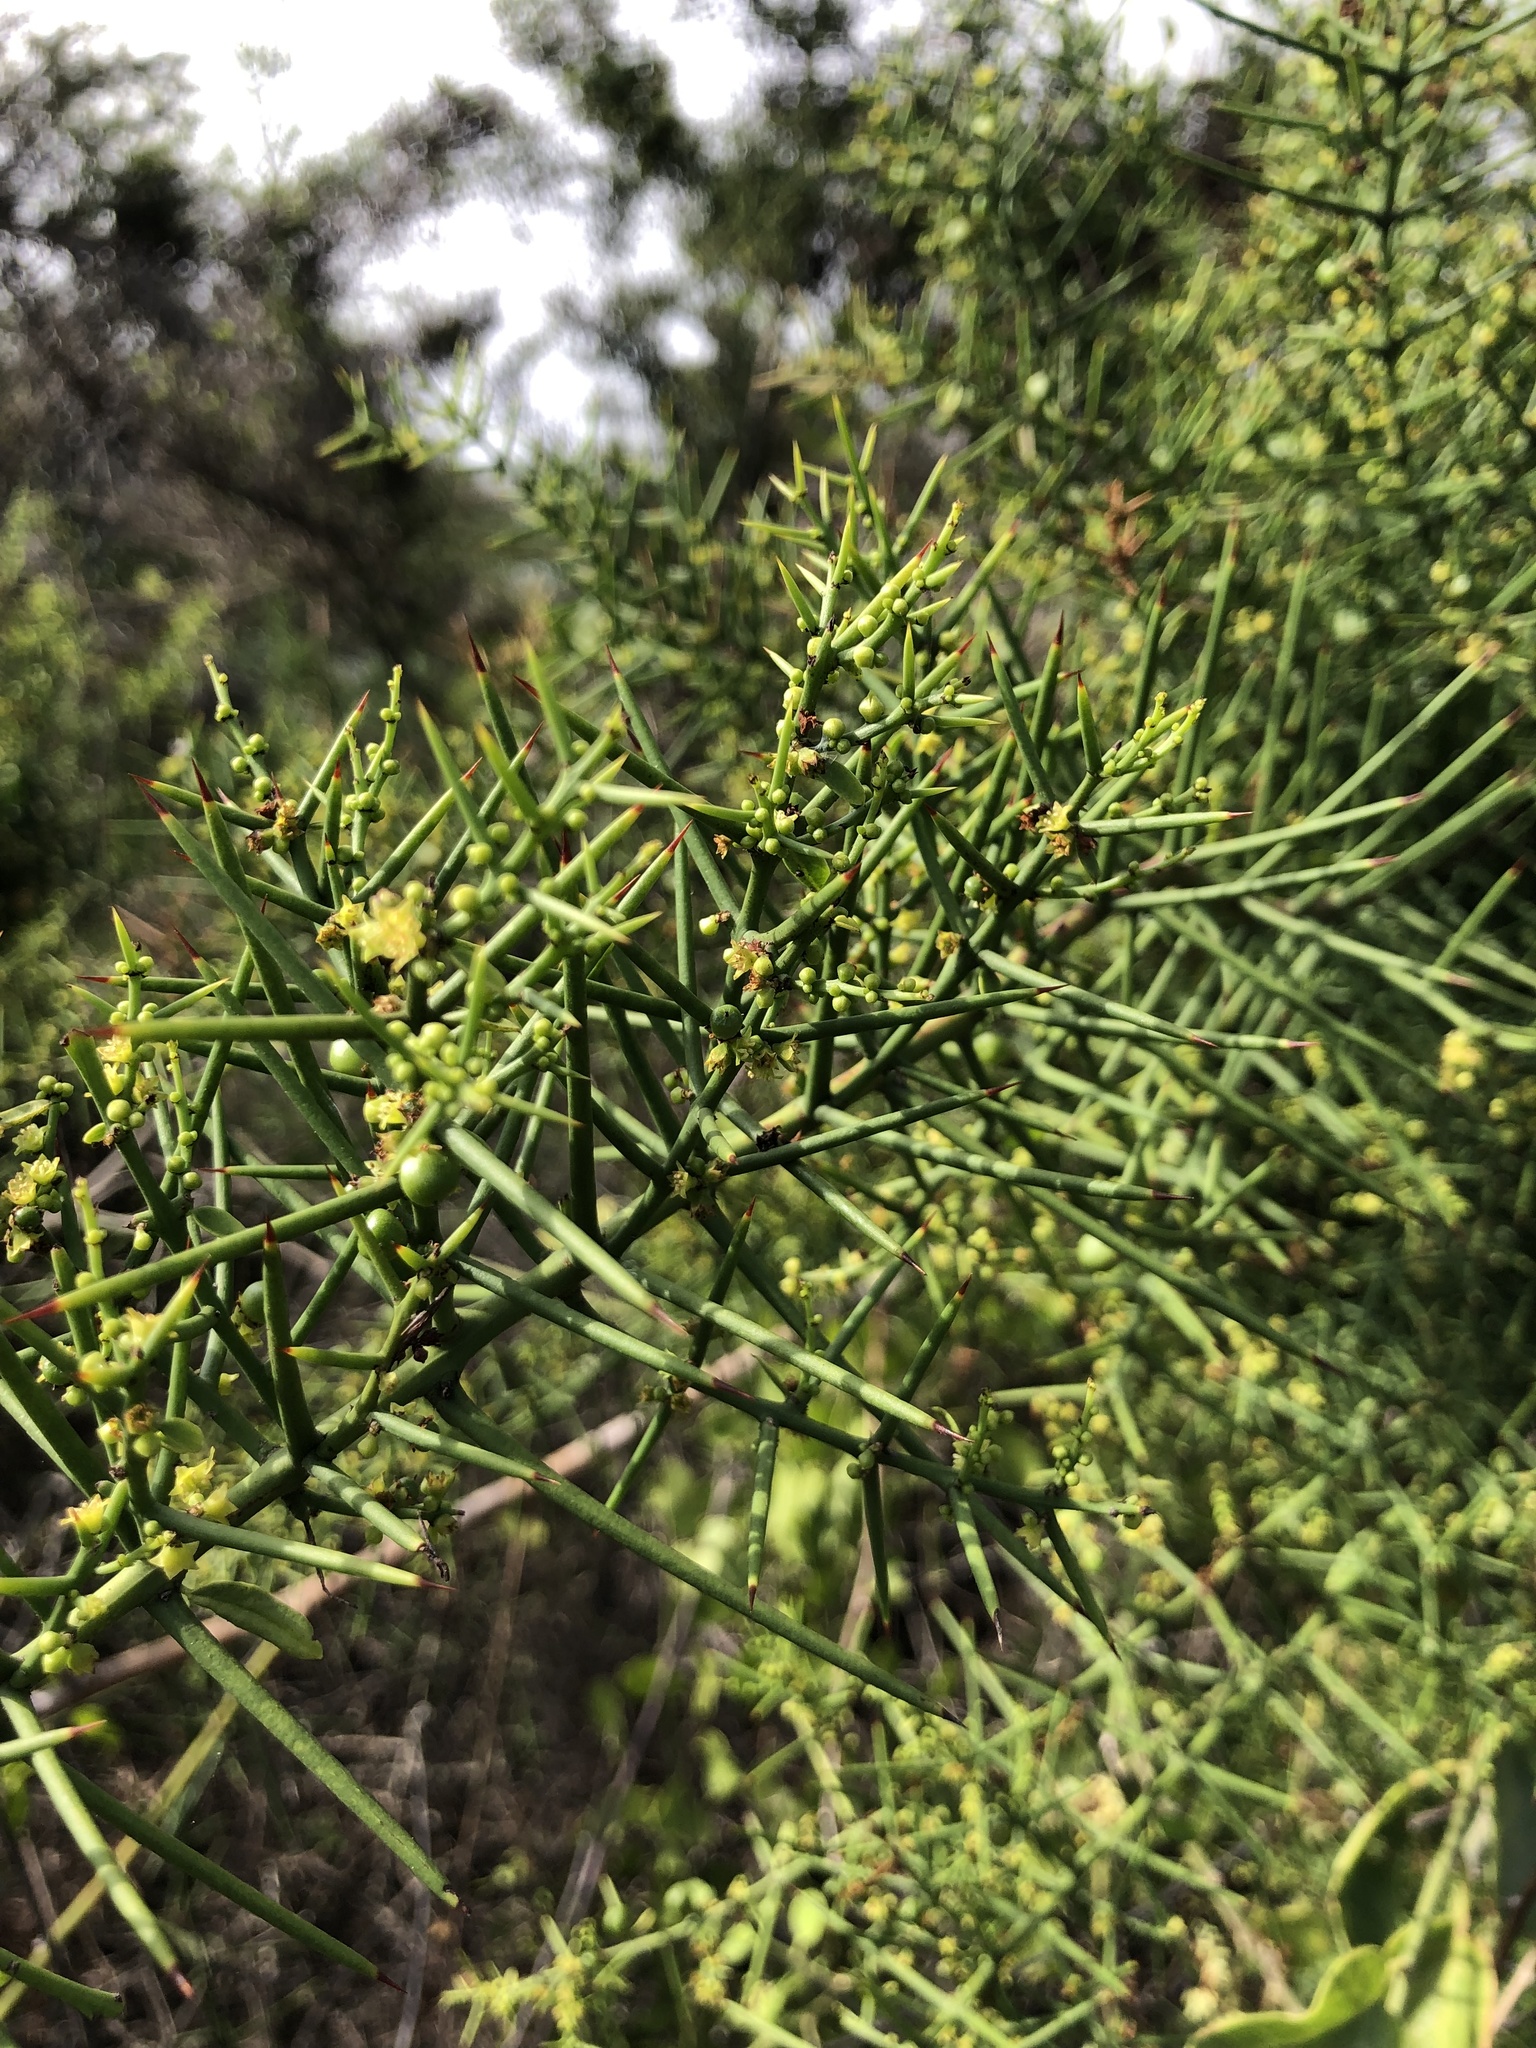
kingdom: Plantae
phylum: Tracheophyta
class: Magnoliopsida
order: Rosales
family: Rhamnaceae
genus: Scutia
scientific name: Scutia spicata
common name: Spiny bush
